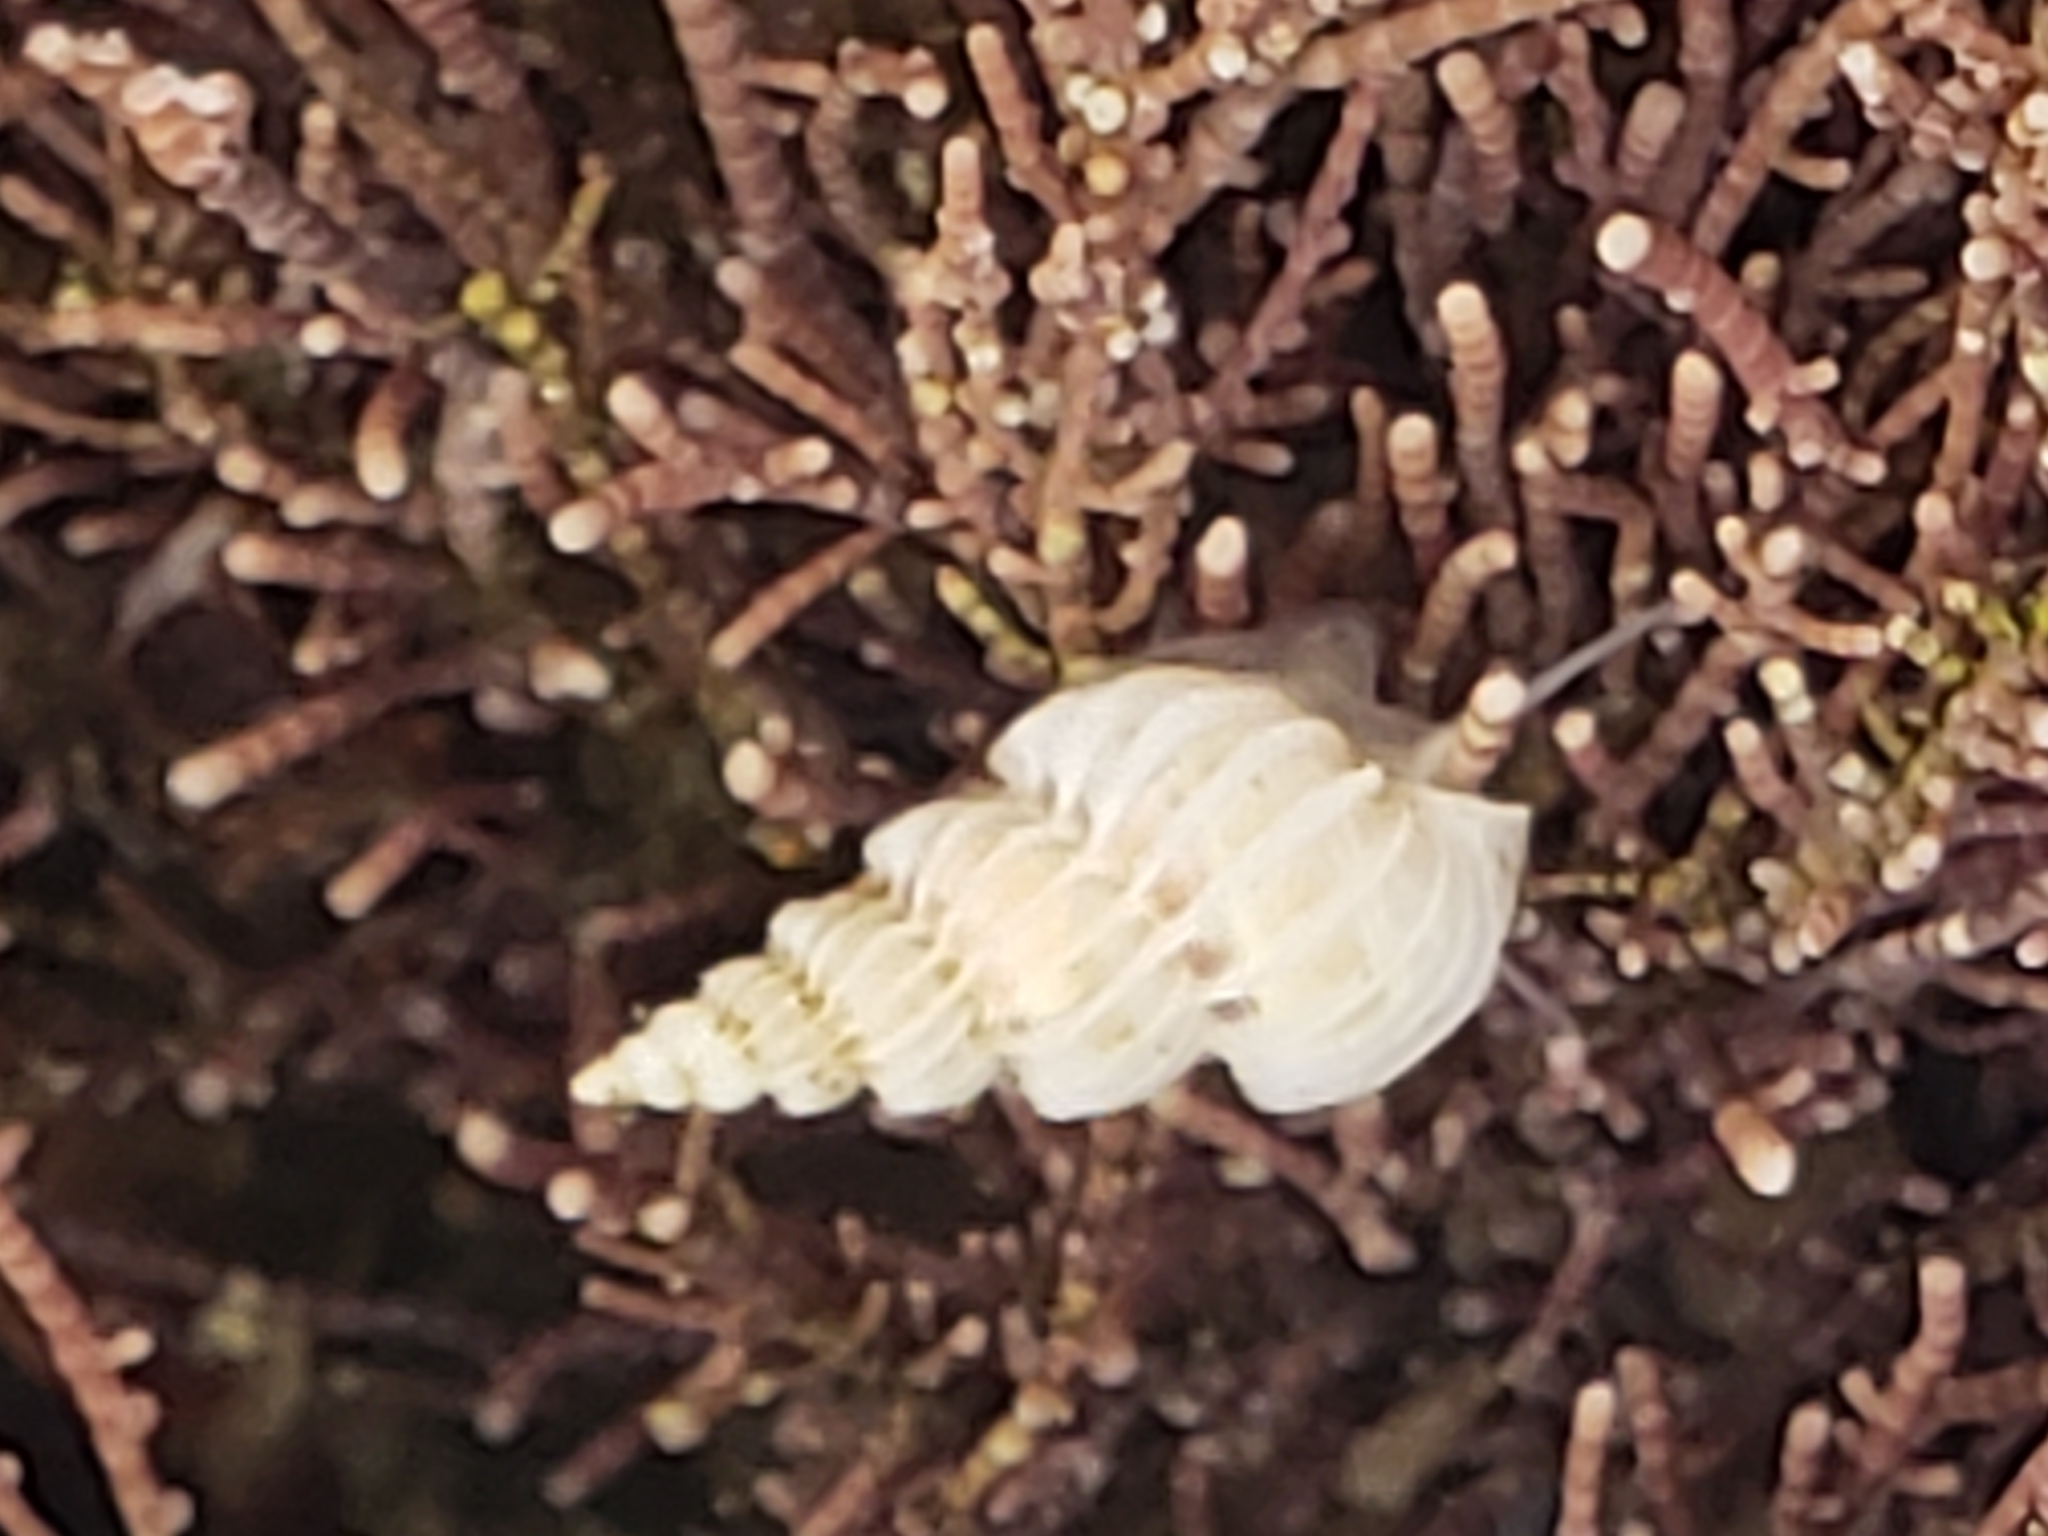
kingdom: Animalia
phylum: Mollusca
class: Gastropoda
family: Epitoniidae
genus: Epitonium
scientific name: Epitonium tinctum
